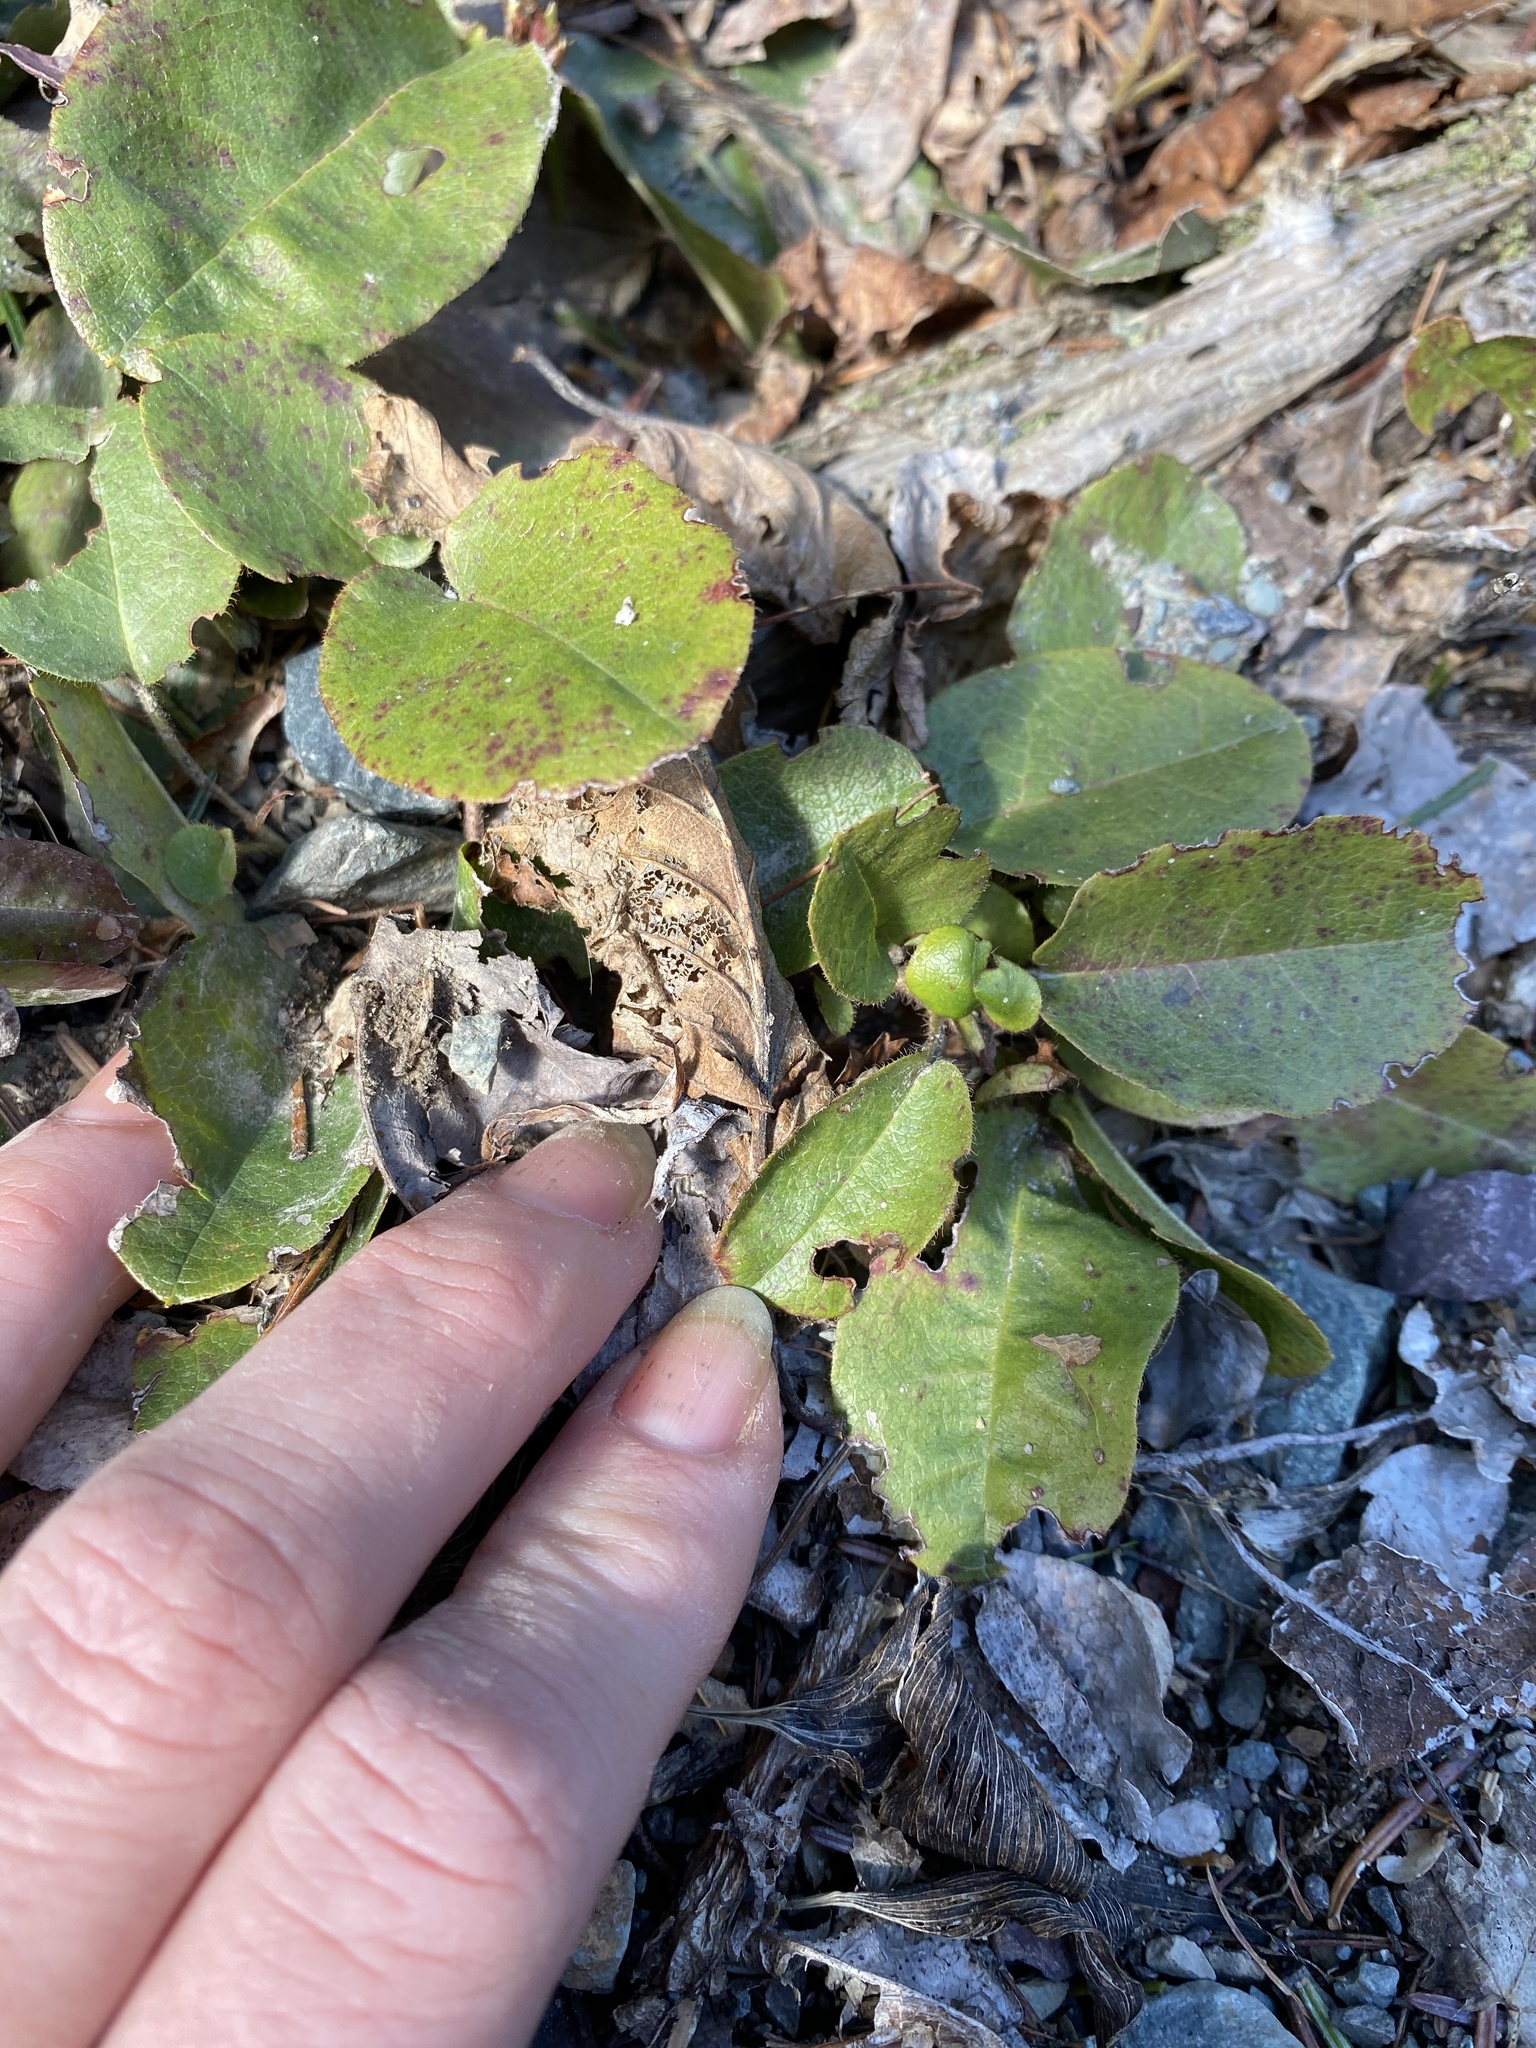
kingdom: Plantae
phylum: Tracheophyta
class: Magnoliopsida
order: Ericales
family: Ericaceae
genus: Epigaea
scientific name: Epigaea repens
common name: Gravelroot
